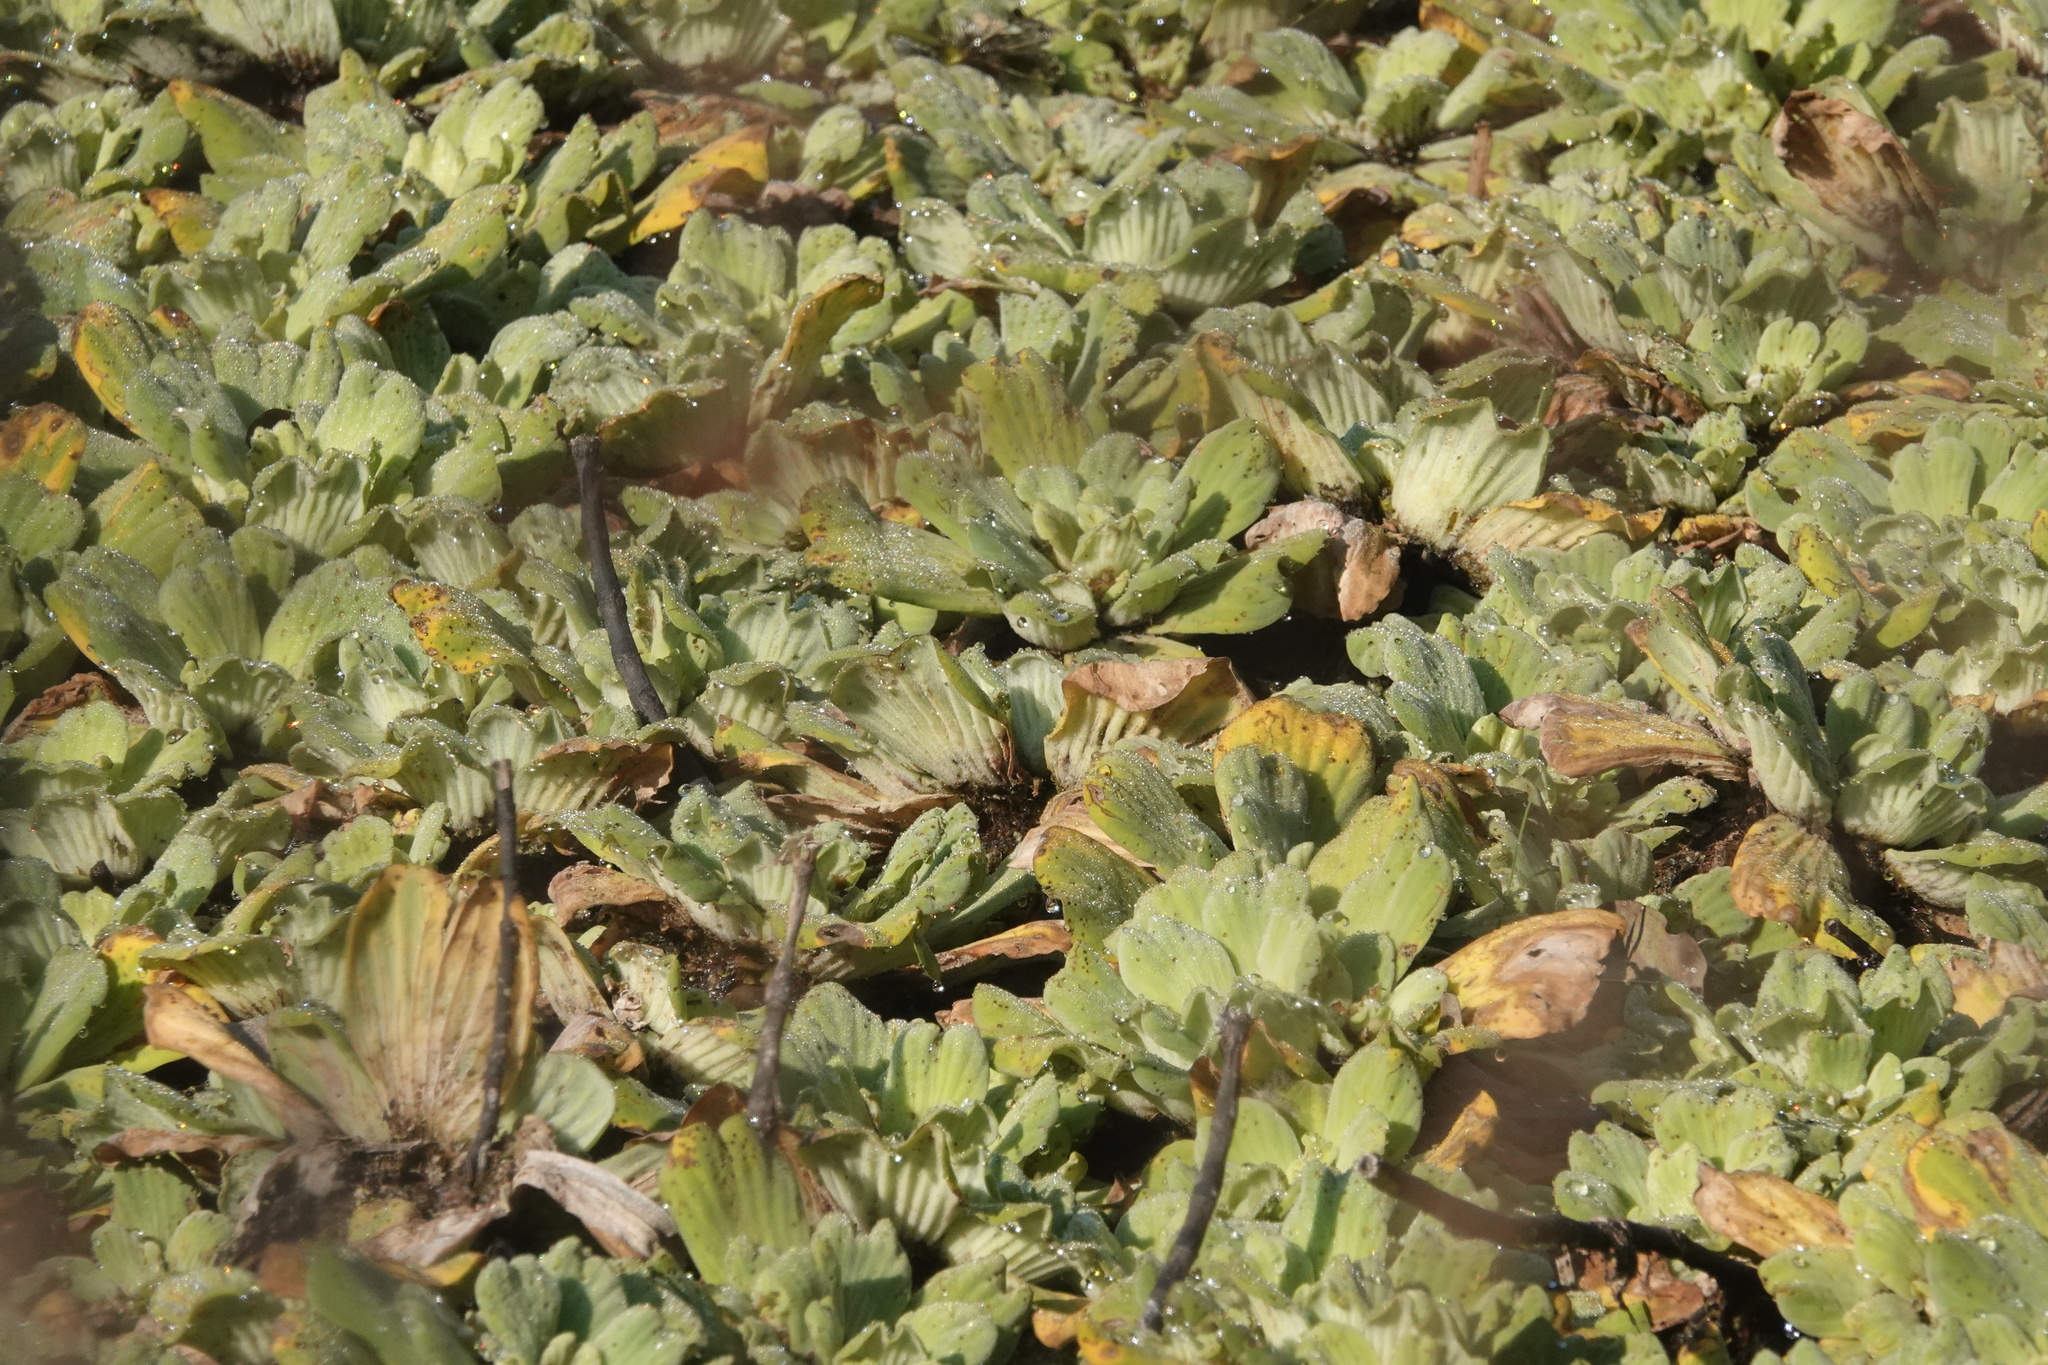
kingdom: Plantae
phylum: Tracheophyta
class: Liliopsida
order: Alismatales
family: Araceae
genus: Pistia
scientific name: Pistia stratiotes
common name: Water lettuce
